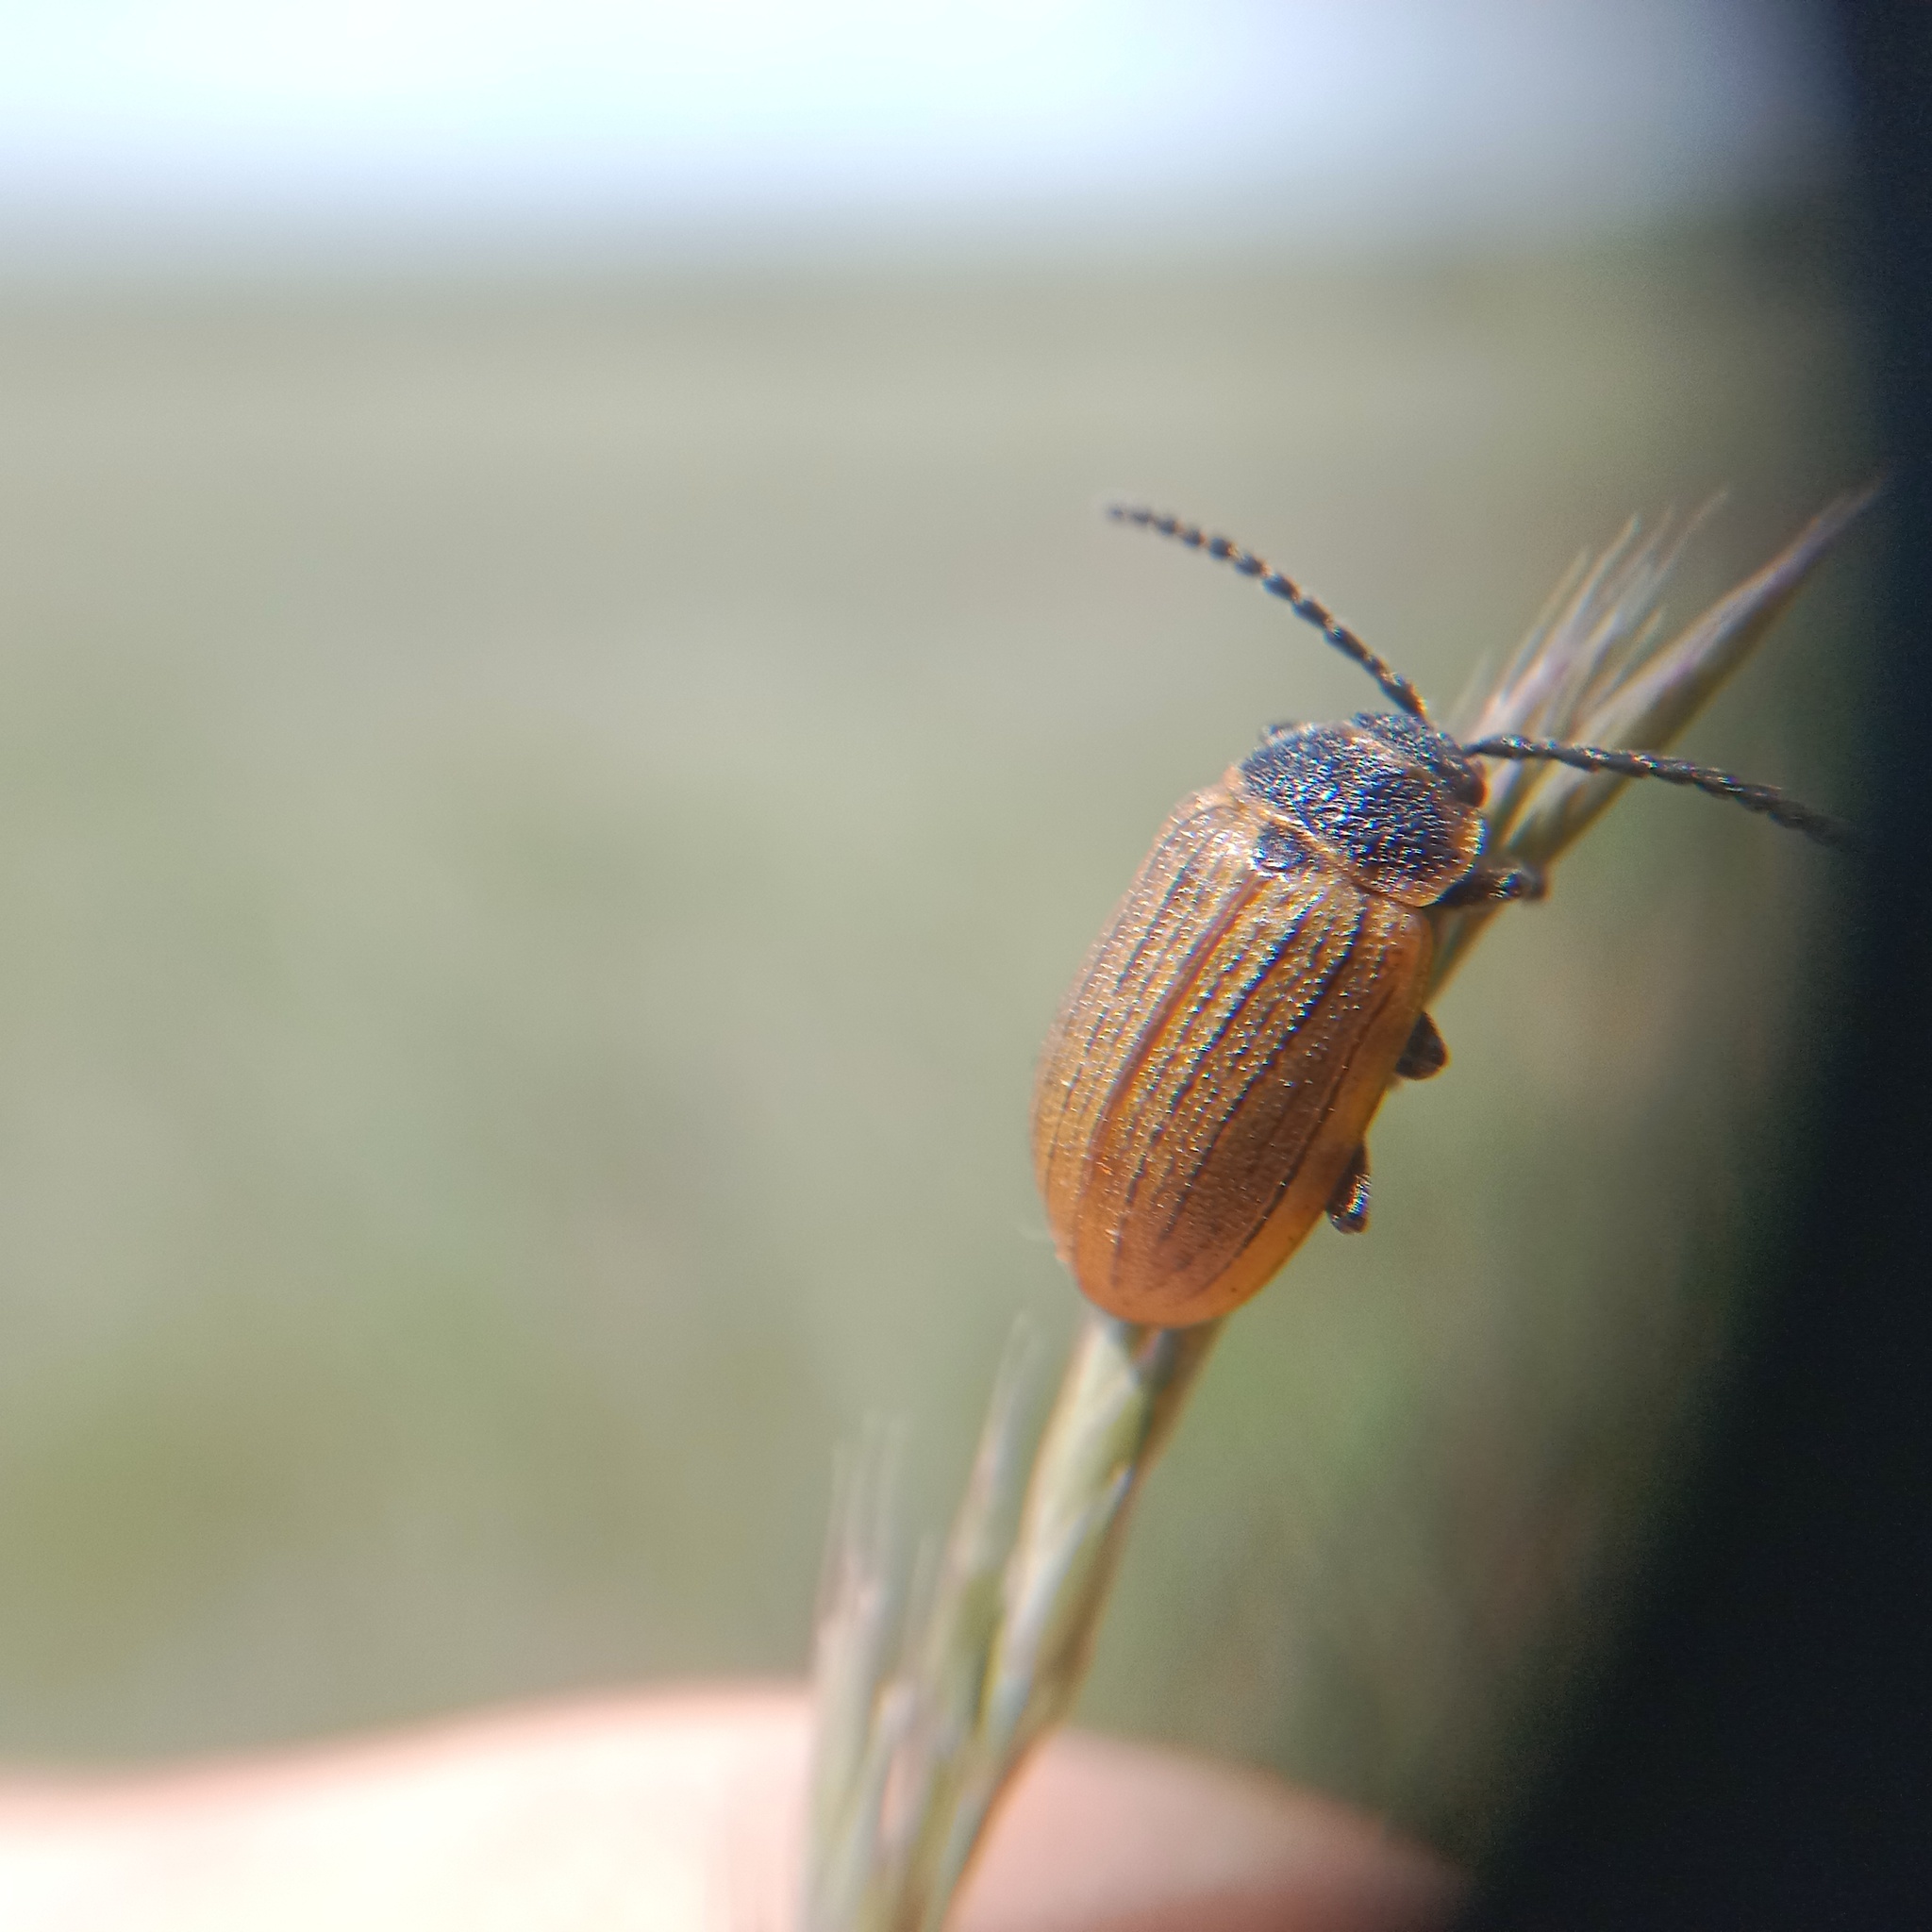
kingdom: Animalia
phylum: Arthropoda
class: Insecta
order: Coleoptera
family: Chrysomelidae
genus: Galeruca
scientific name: Galeruca interrupta
